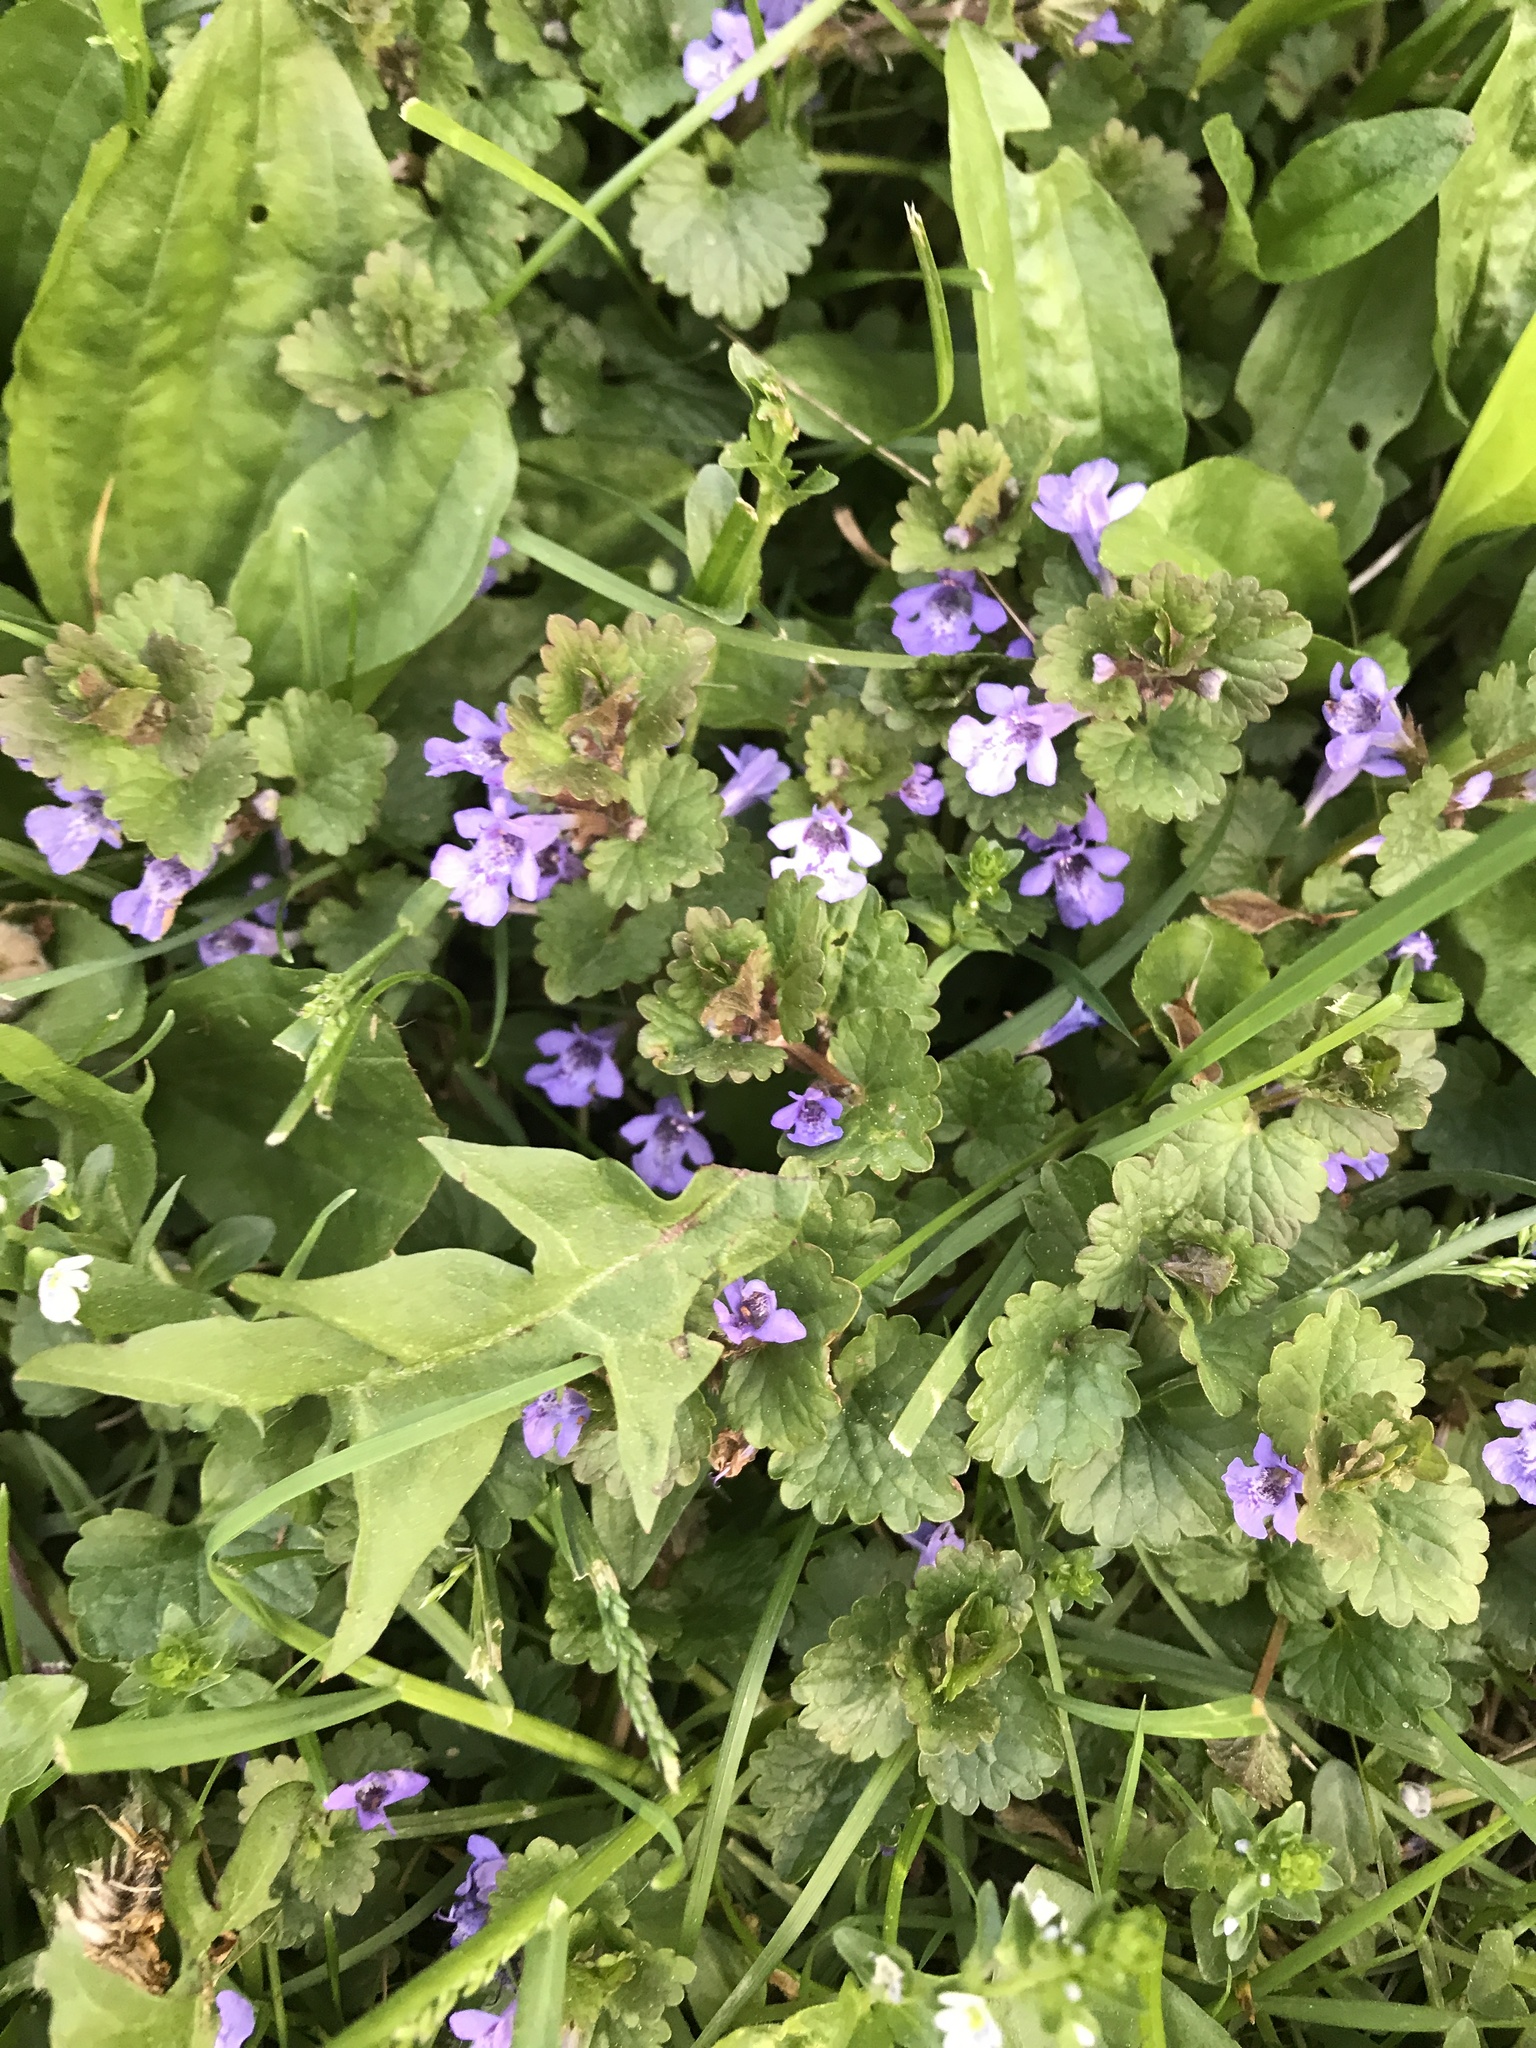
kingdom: Plantae
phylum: Tracheophyta
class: Magnoliopsida
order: Lamiales
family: Lamiaceae
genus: Glechoma
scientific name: Glechoma hederacea
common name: Ground ivy
